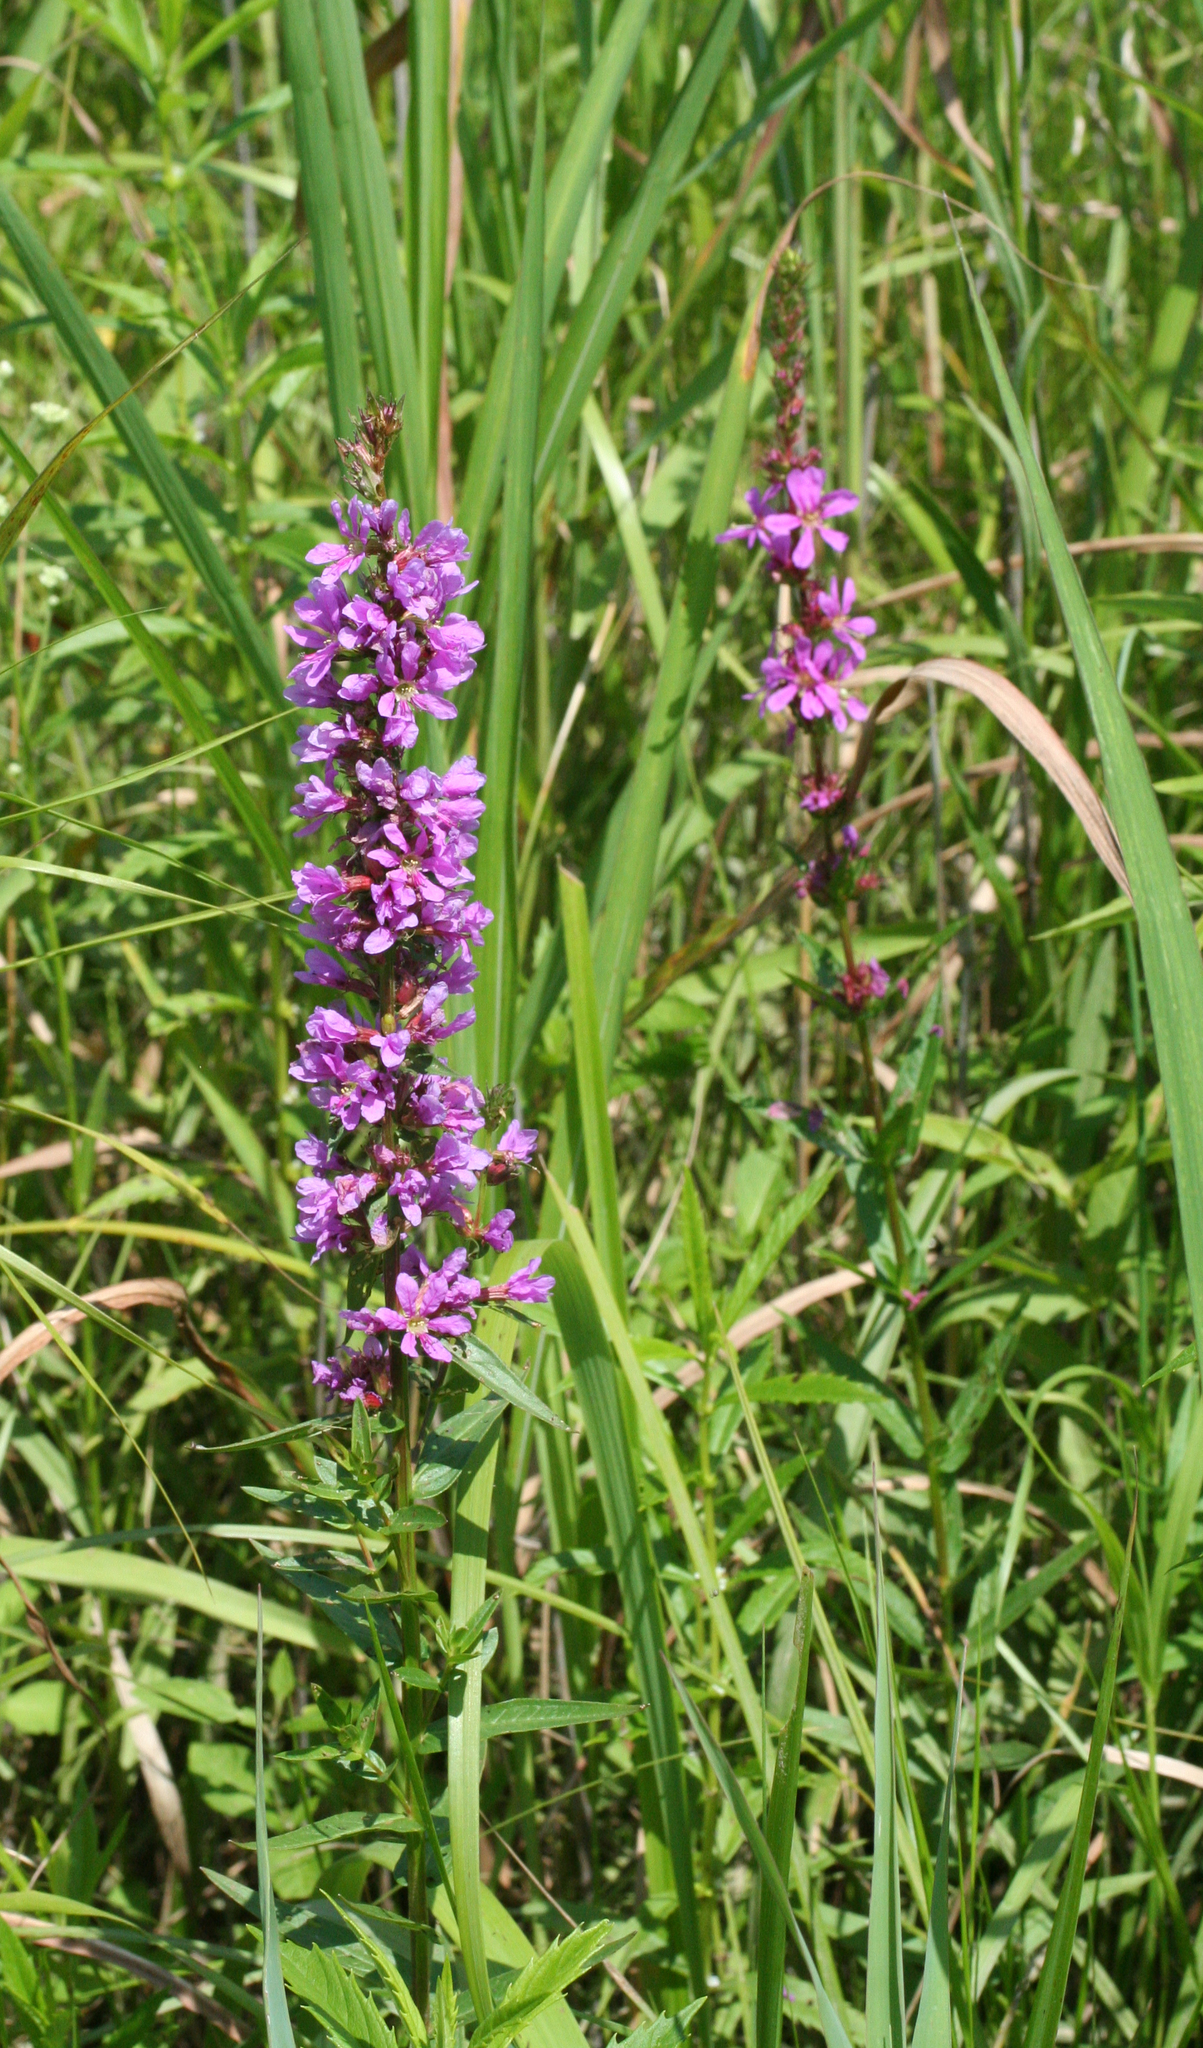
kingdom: Plantae
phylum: Tracheophyta
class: Magnoliopsida
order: Myrtales
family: Lythraceae
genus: Lythrum
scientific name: Lythrum salicaria
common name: Purple loosestrife
